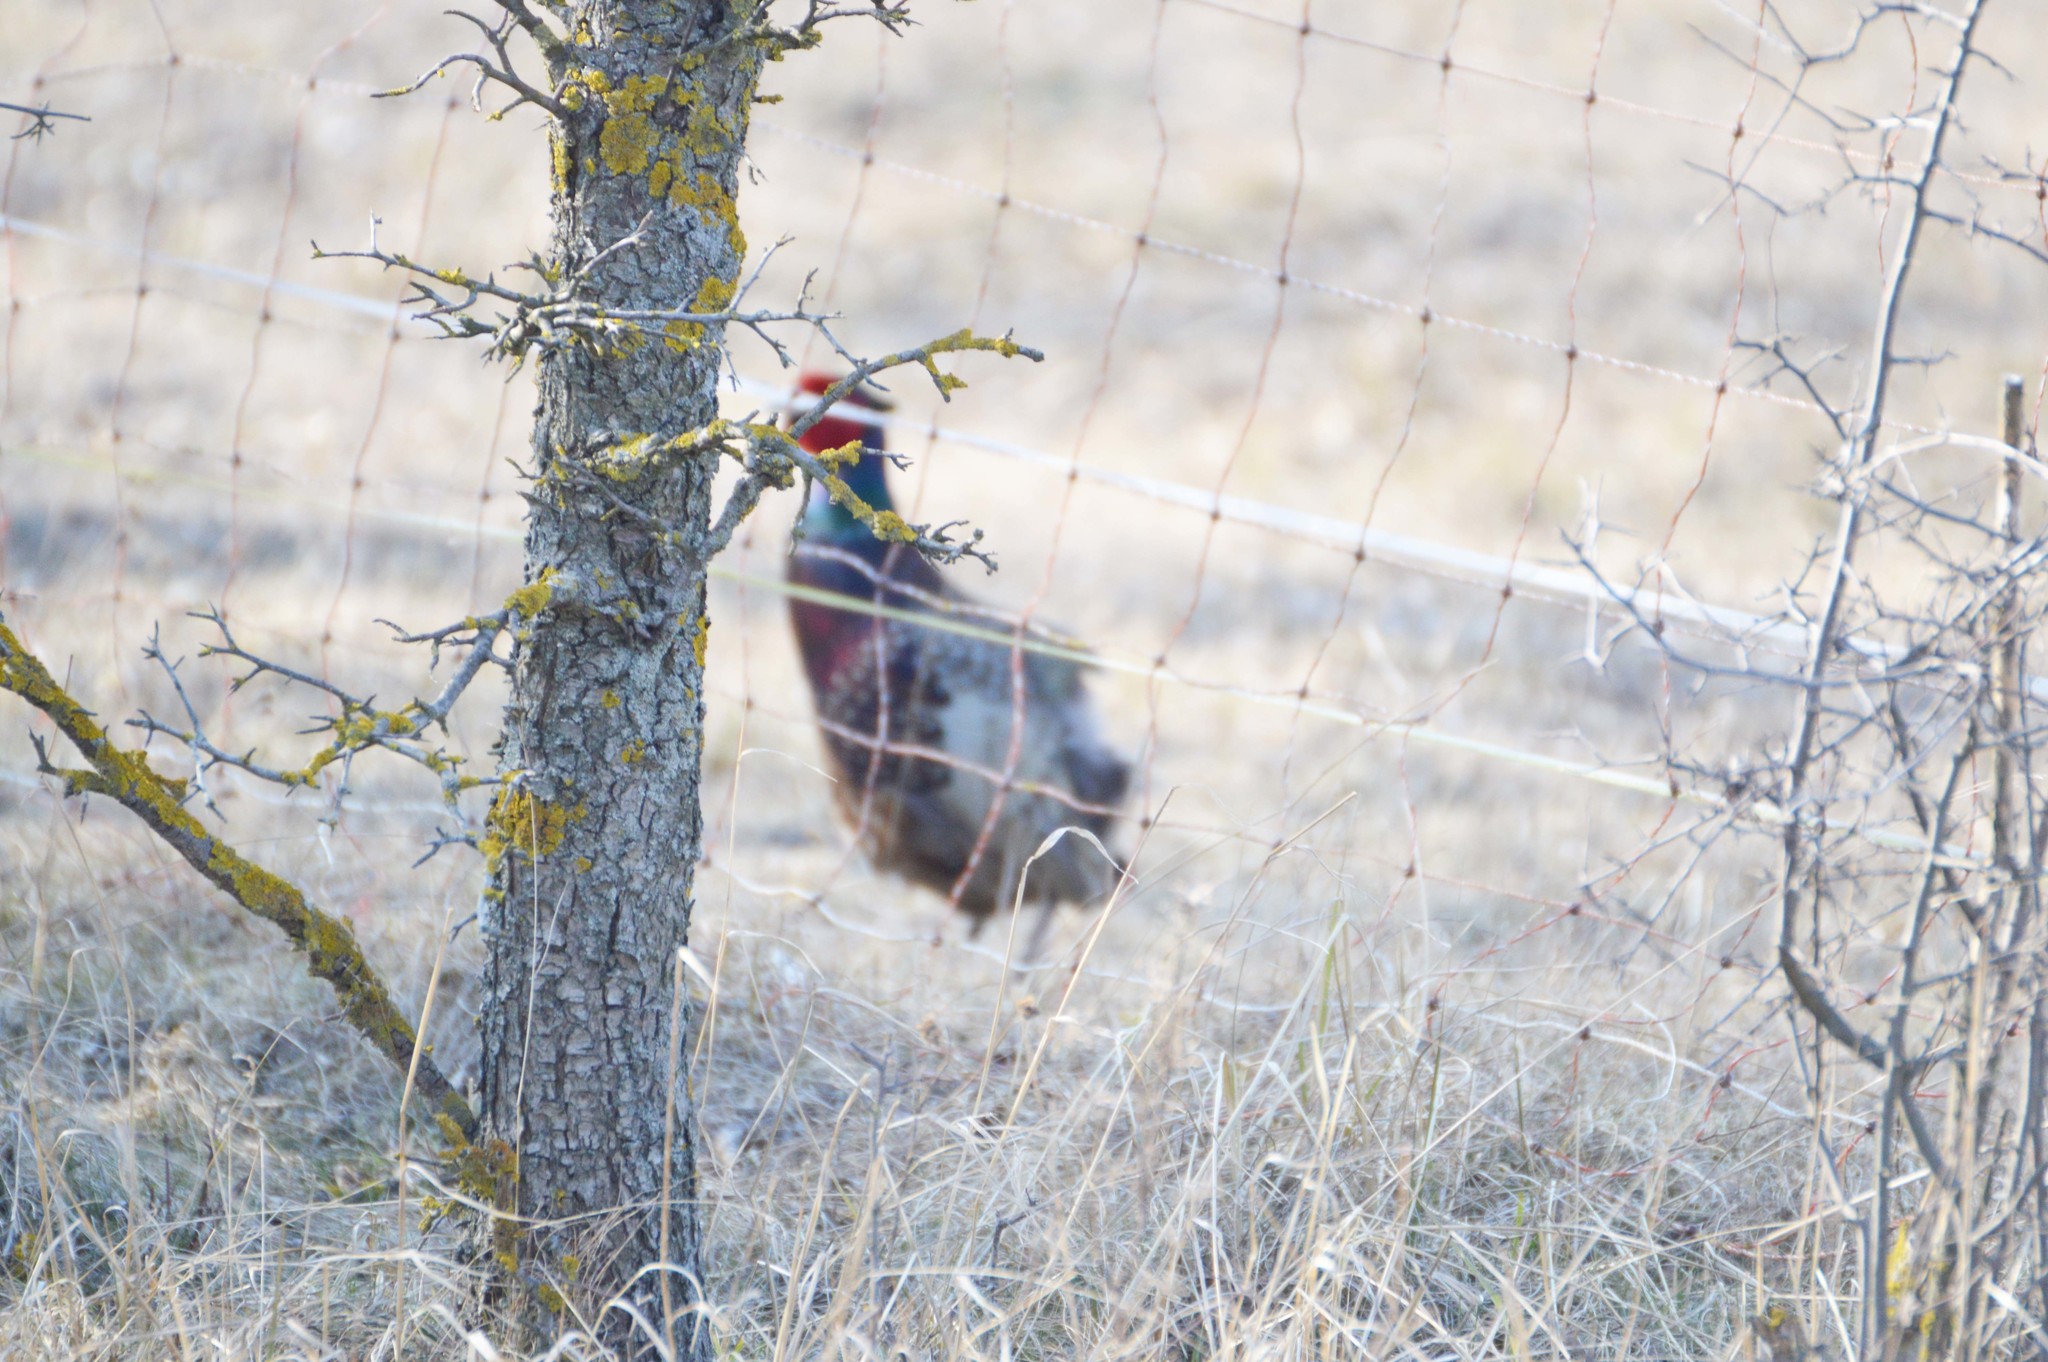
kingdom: Animalia
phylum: Chordata
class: Aves
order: Galliformes
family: Phasianidae
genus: Phasianus
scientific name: Phasianus colchicus
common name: Common pheasant
